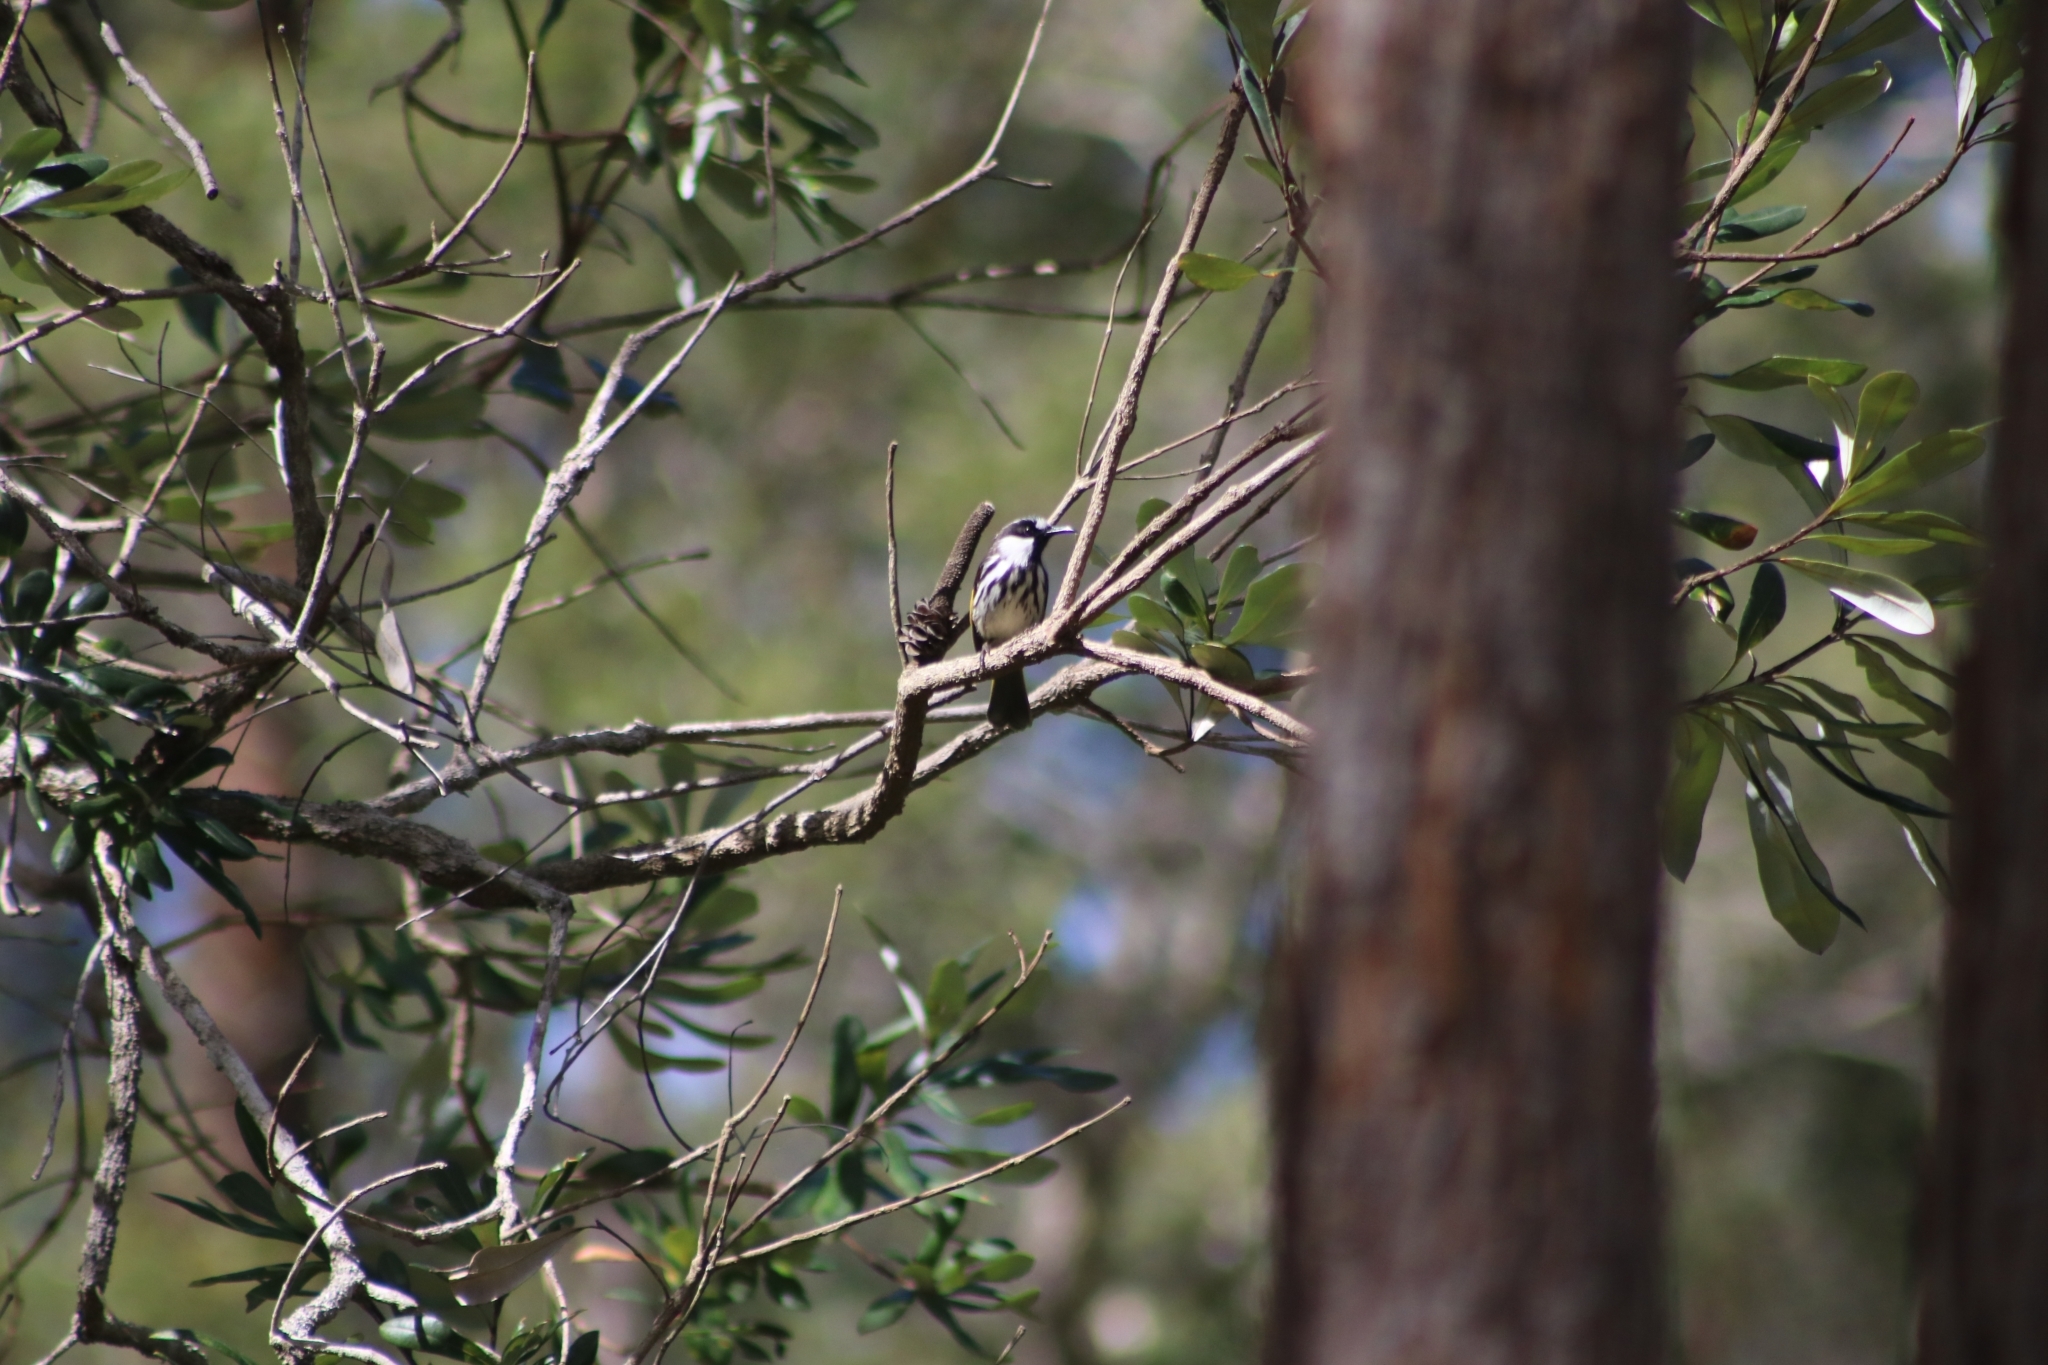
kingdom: Animalia
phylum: Chordata
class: Aves
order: Passeriformes
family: Meliphagidae
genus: Phylidonyris
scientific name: Phylidonyris niger
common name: White-cheeked honeyeater
